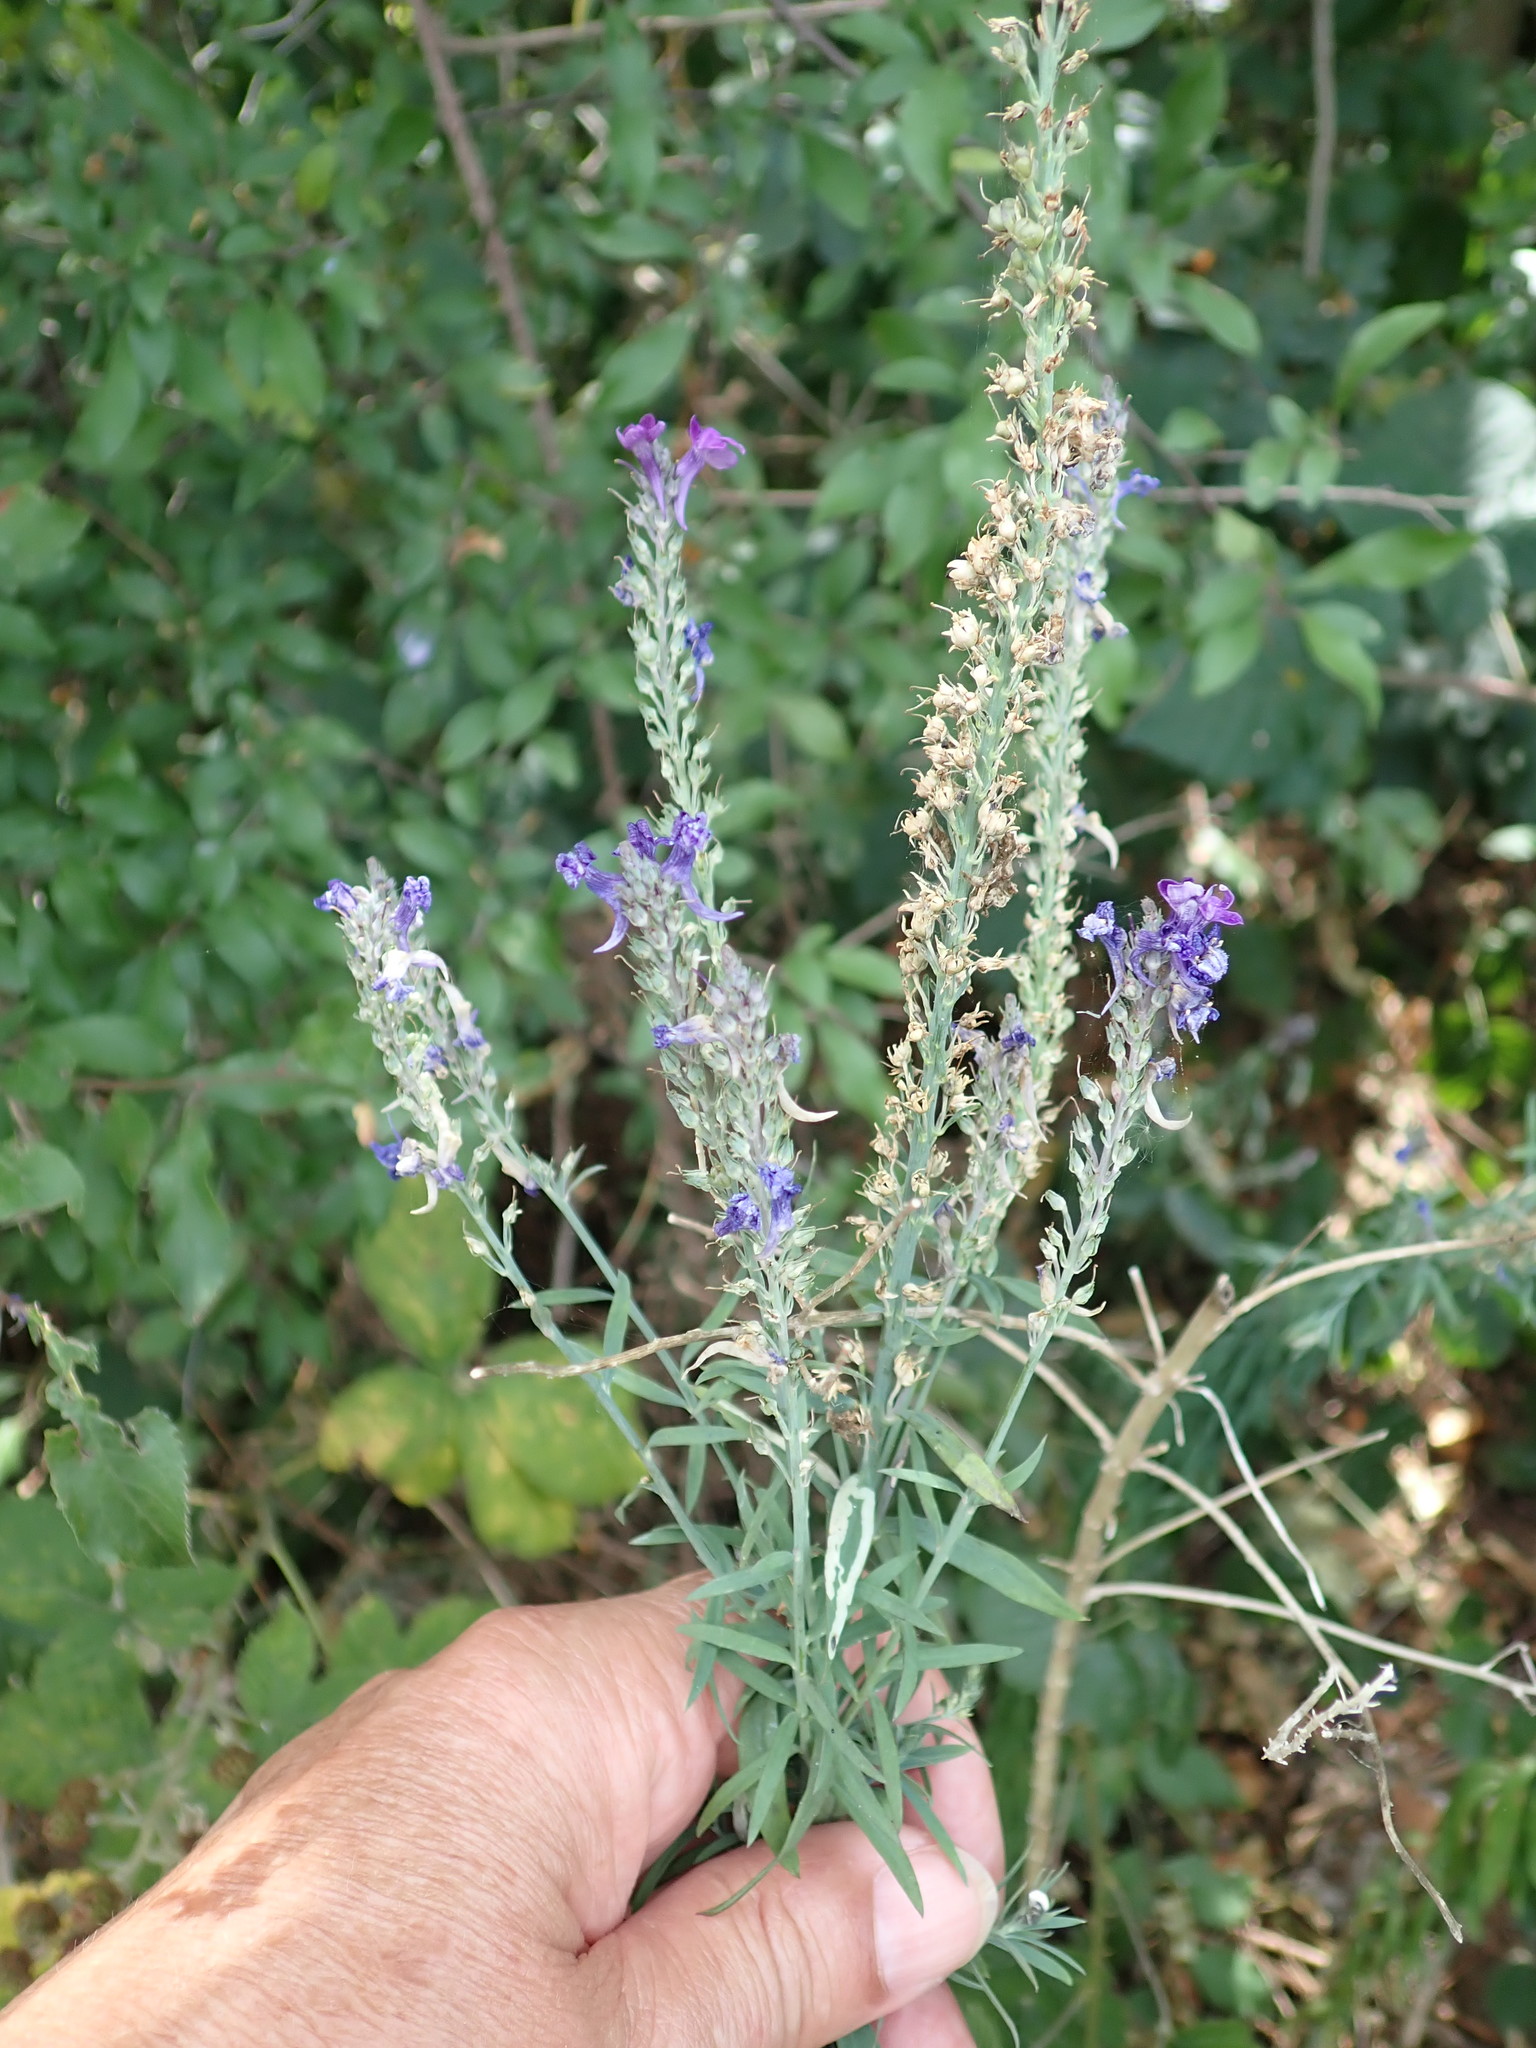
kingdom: Plantae
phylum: Tracheophyta
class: Magnoliopsida
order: Lamiales
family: Plantaginaceae
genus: Linaria
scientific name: Linaria purpurea
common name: Purple toadflax
